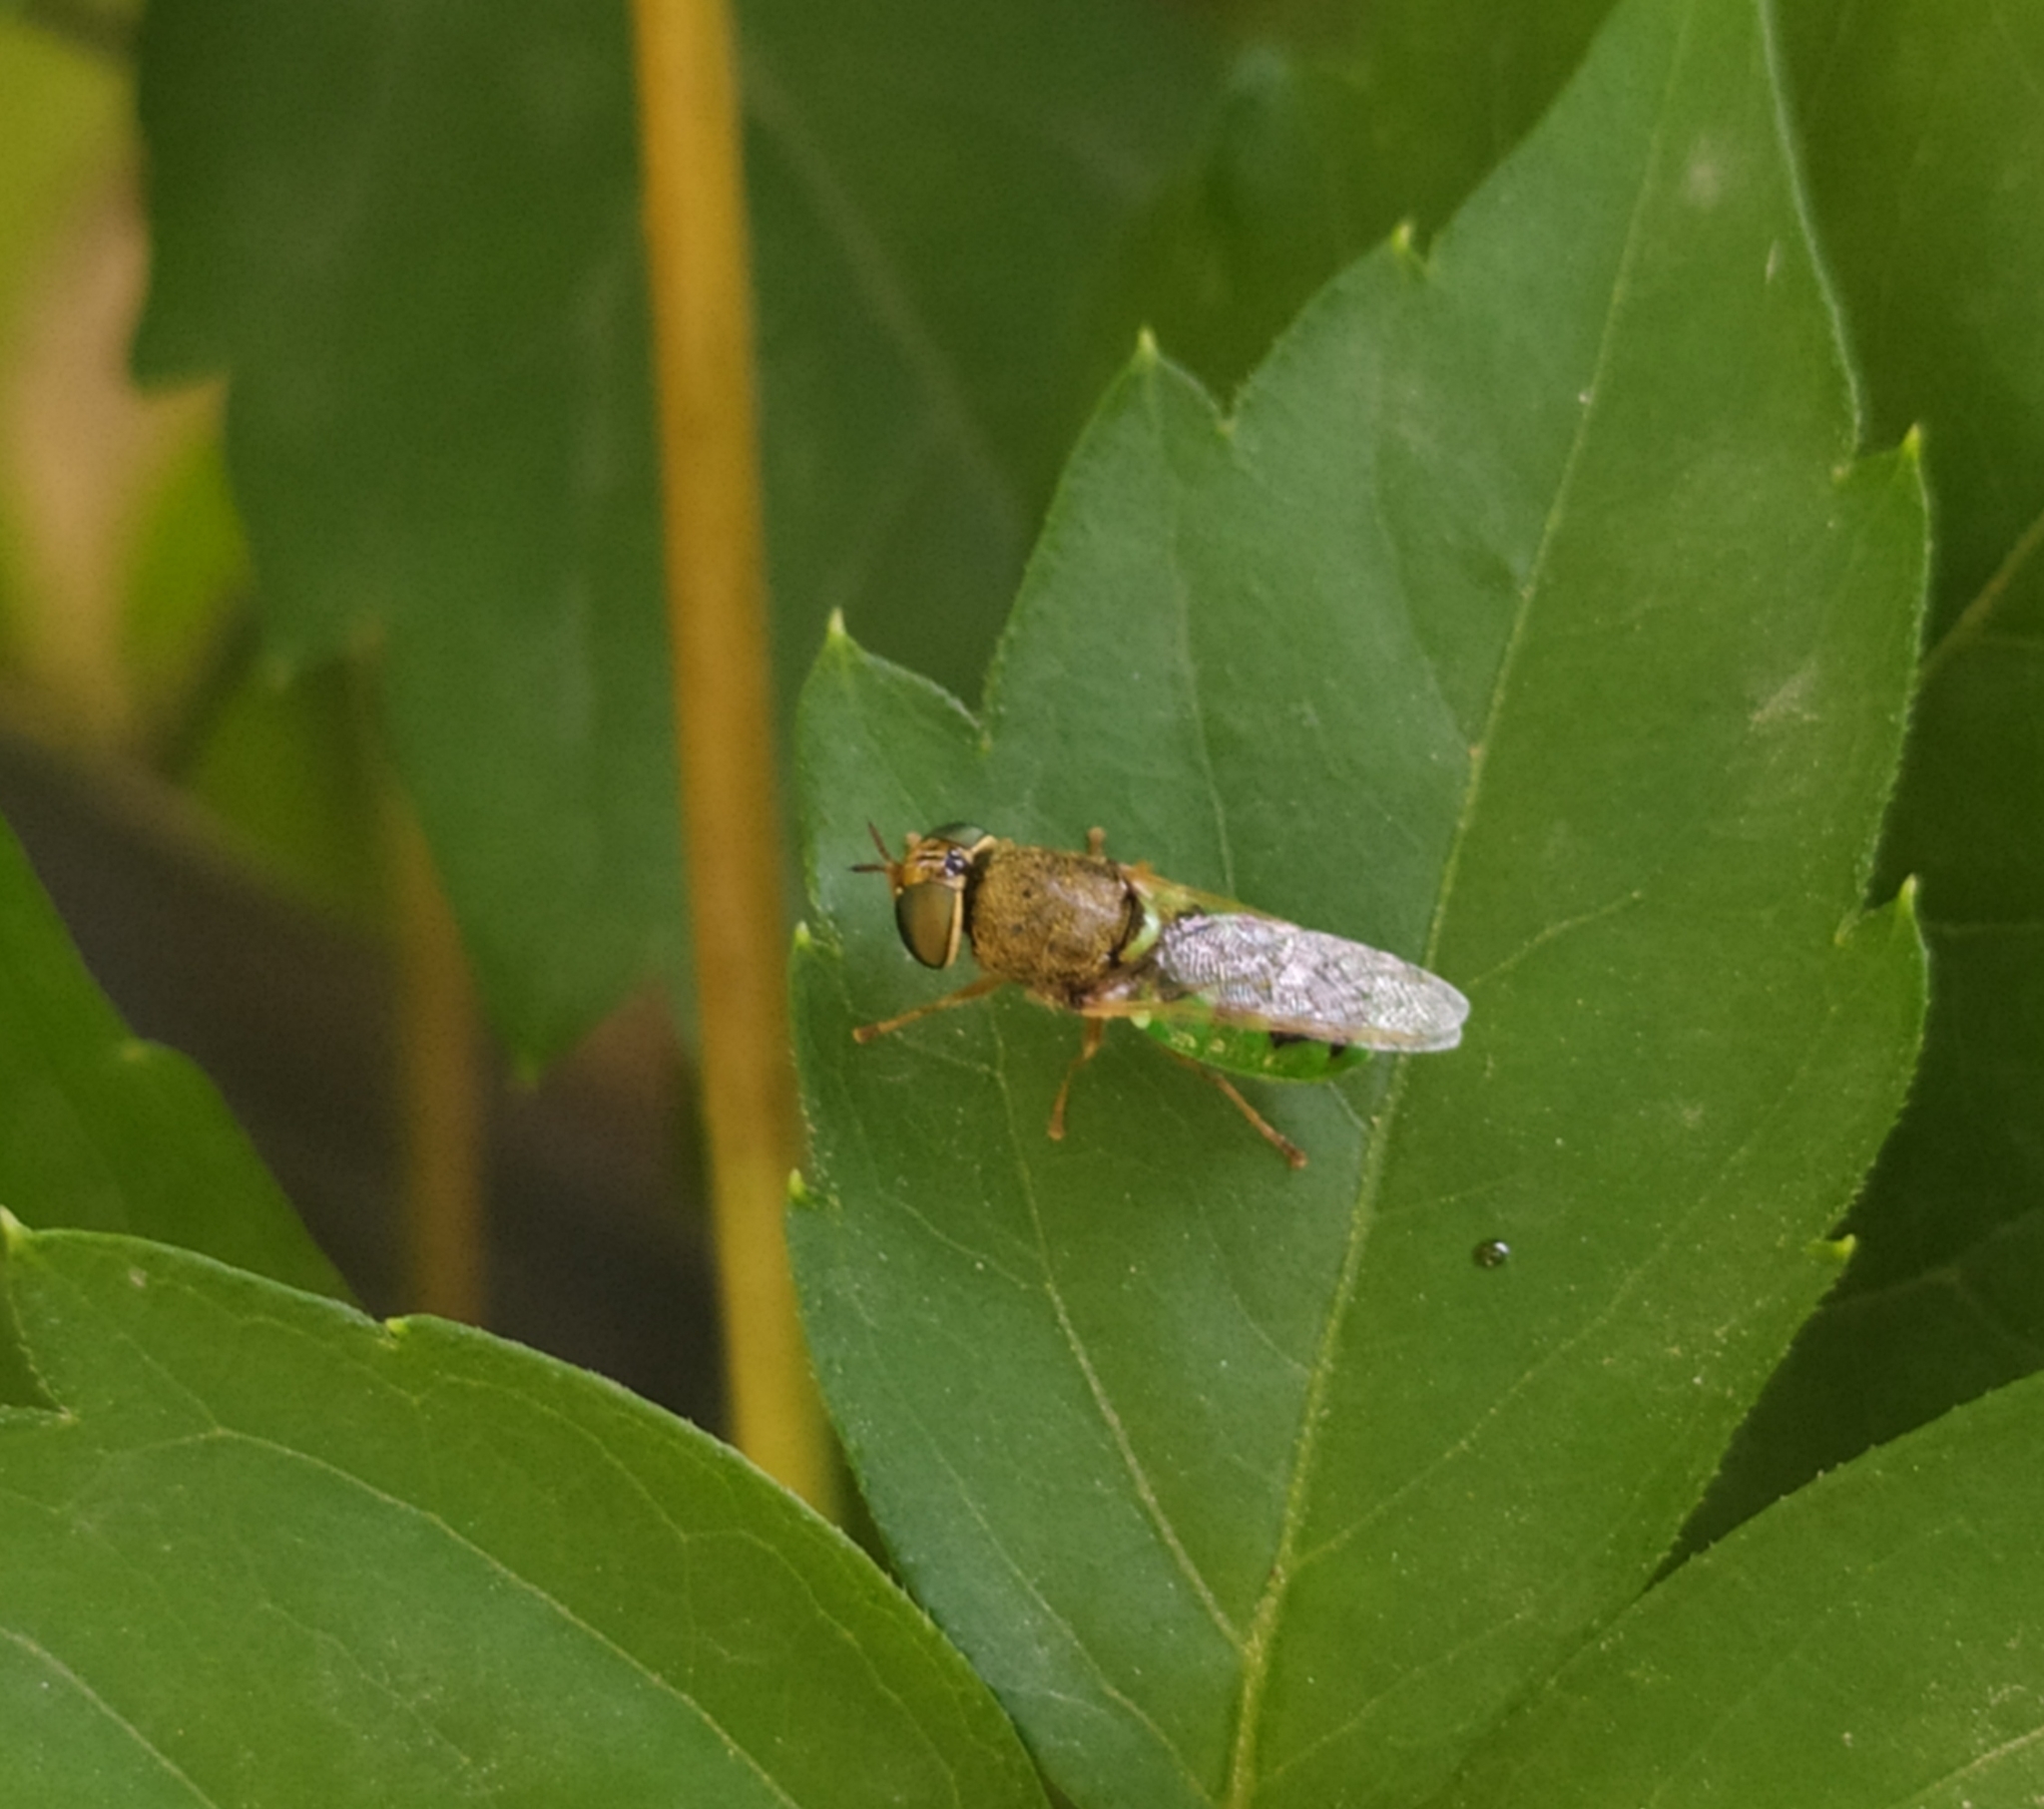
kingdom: Animalia
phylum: Arthropoda
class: Insecta
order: Diptera
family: Stratiomyidae
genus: Odontomyia
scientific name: Odontomyia angulata
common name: Orange-horned green colonel
